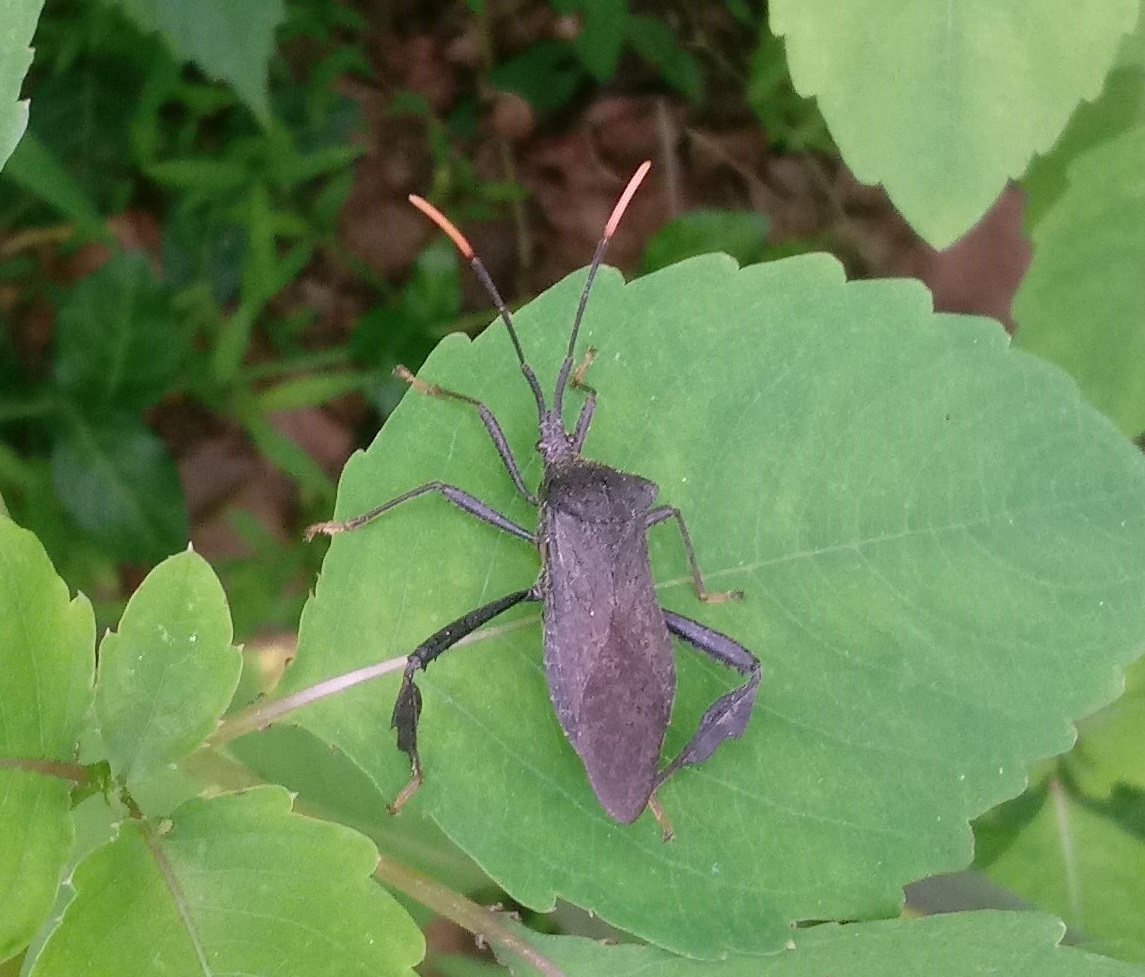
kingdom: Animalia
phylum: Arthropoda
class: Insecta
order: Hemiptera
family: Coreidae
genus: Acanthocephala
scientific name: Acanthocephala terminalis
